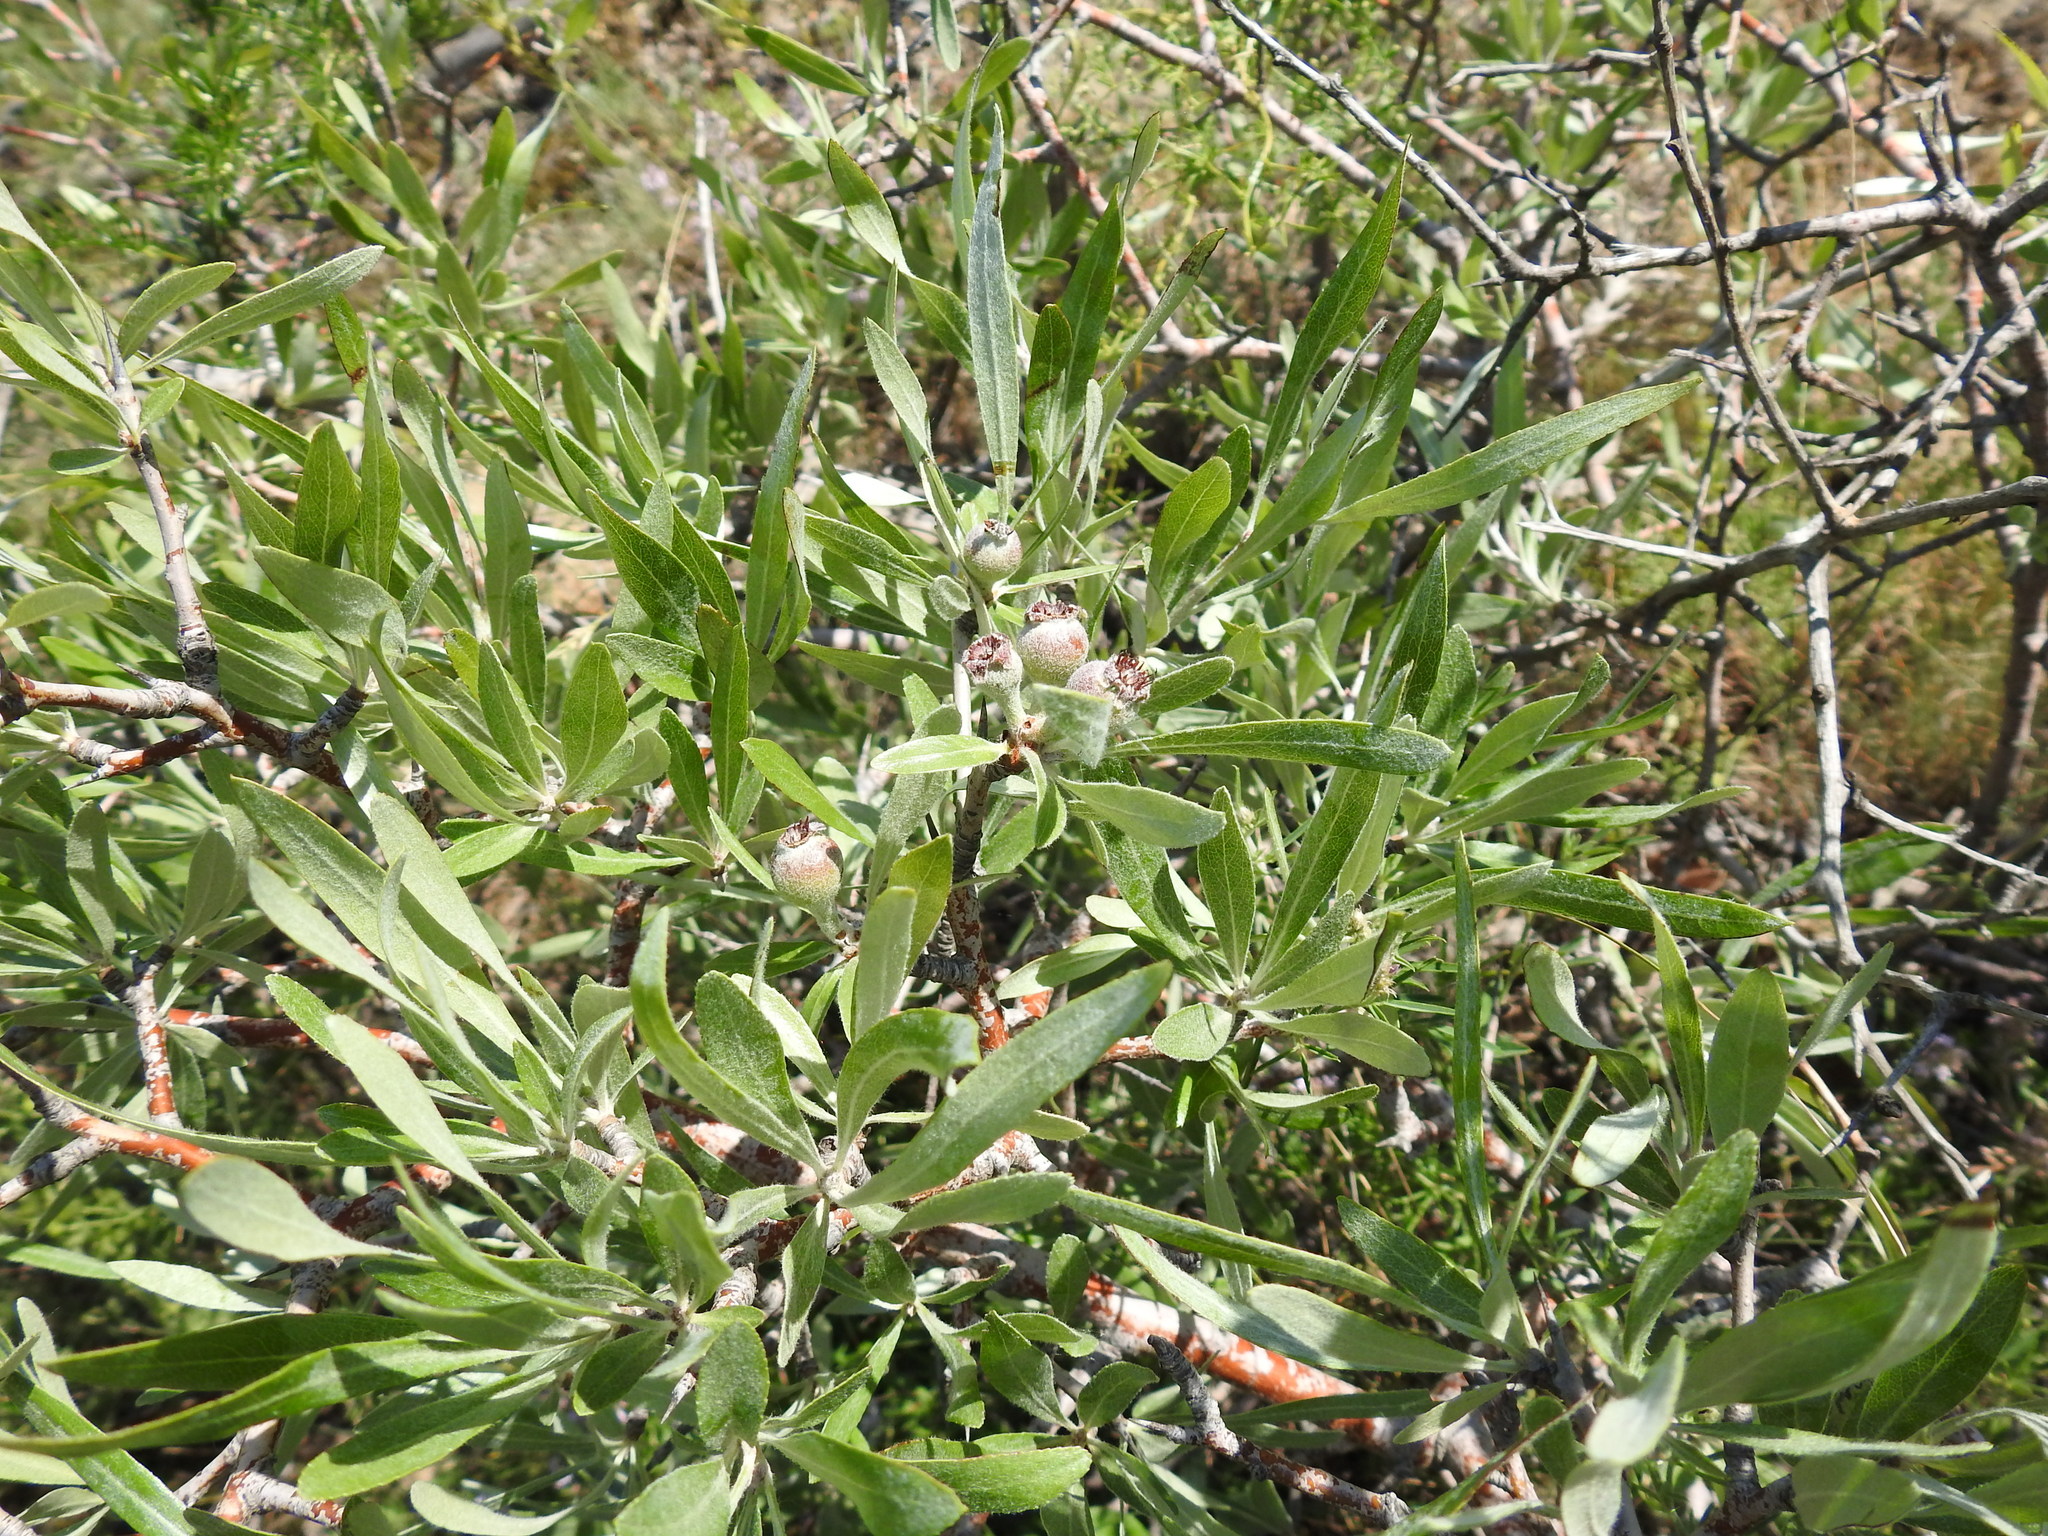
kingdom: Plantae
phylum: Tracheophyta
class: Magnoliopsida
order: Rosales
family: Rosaceae
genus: Pyrus
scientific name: Pyrus salicifolia
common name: Willow-leaved pear
